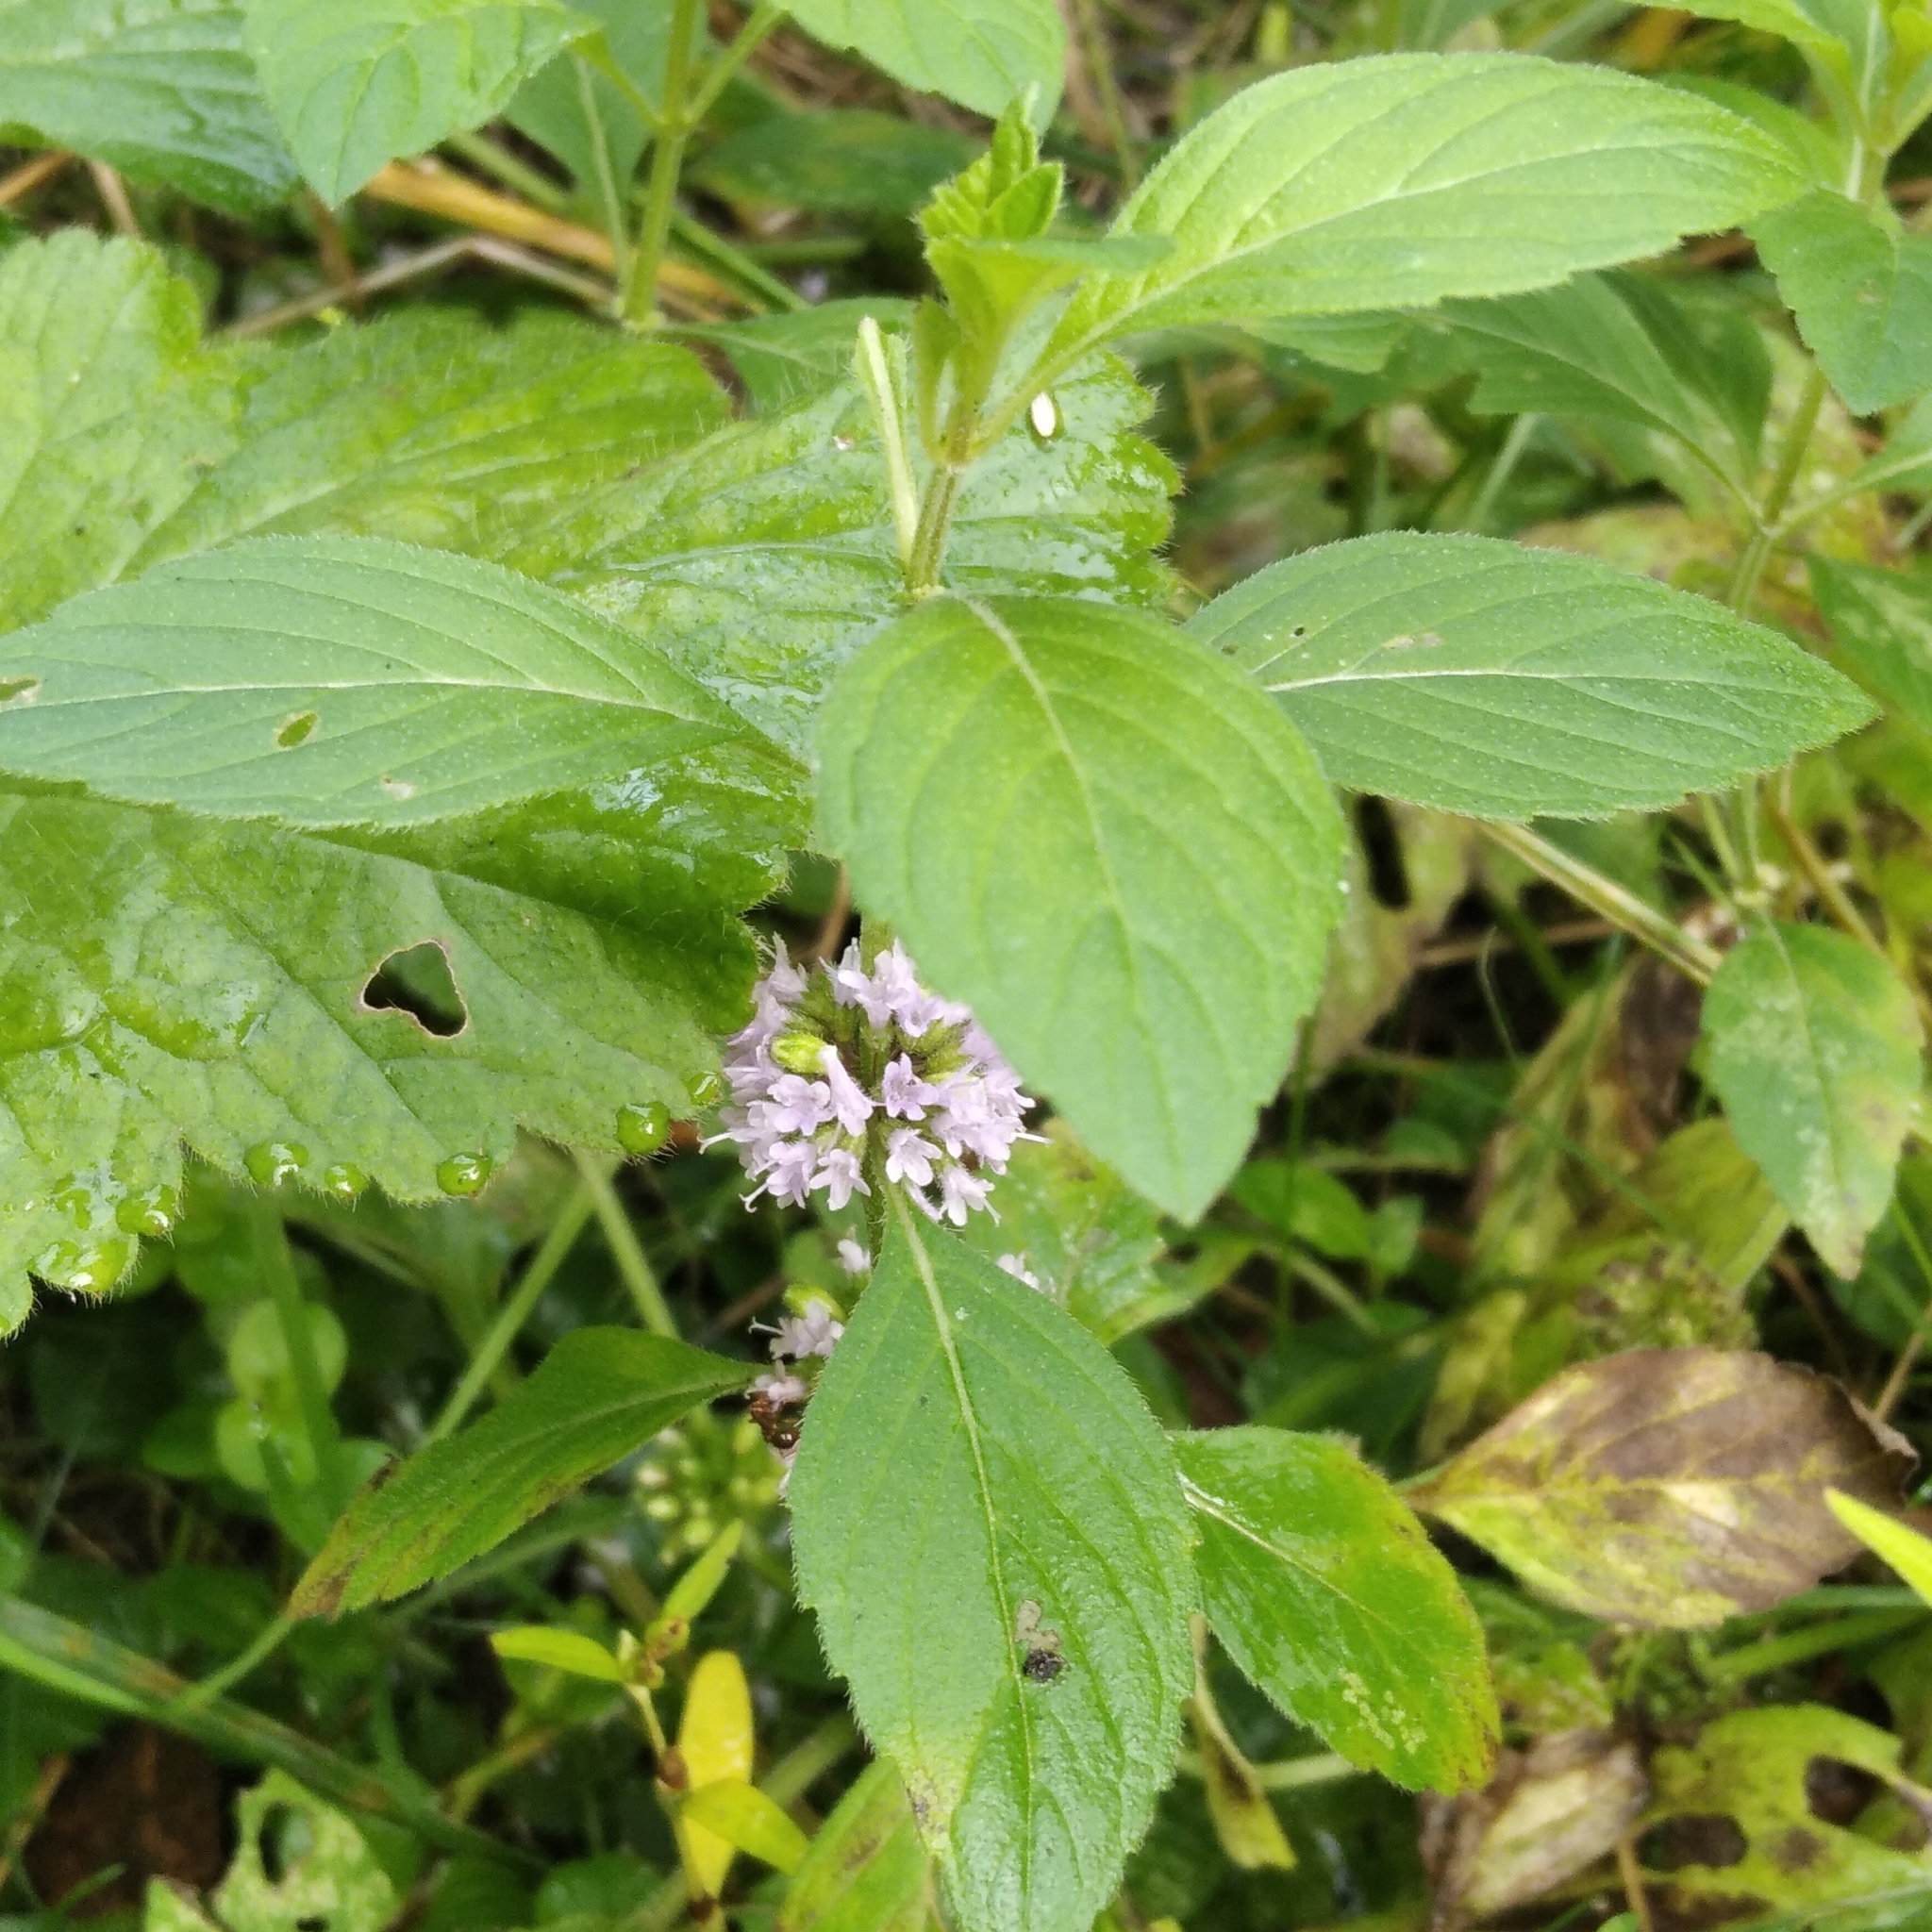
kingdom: Plantae
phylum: Tracheophyta
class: Magnoliopsida
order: Lamiales
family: Lamiaceae
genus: Mentha
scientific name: Mentha arvensis
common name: Corn mint
